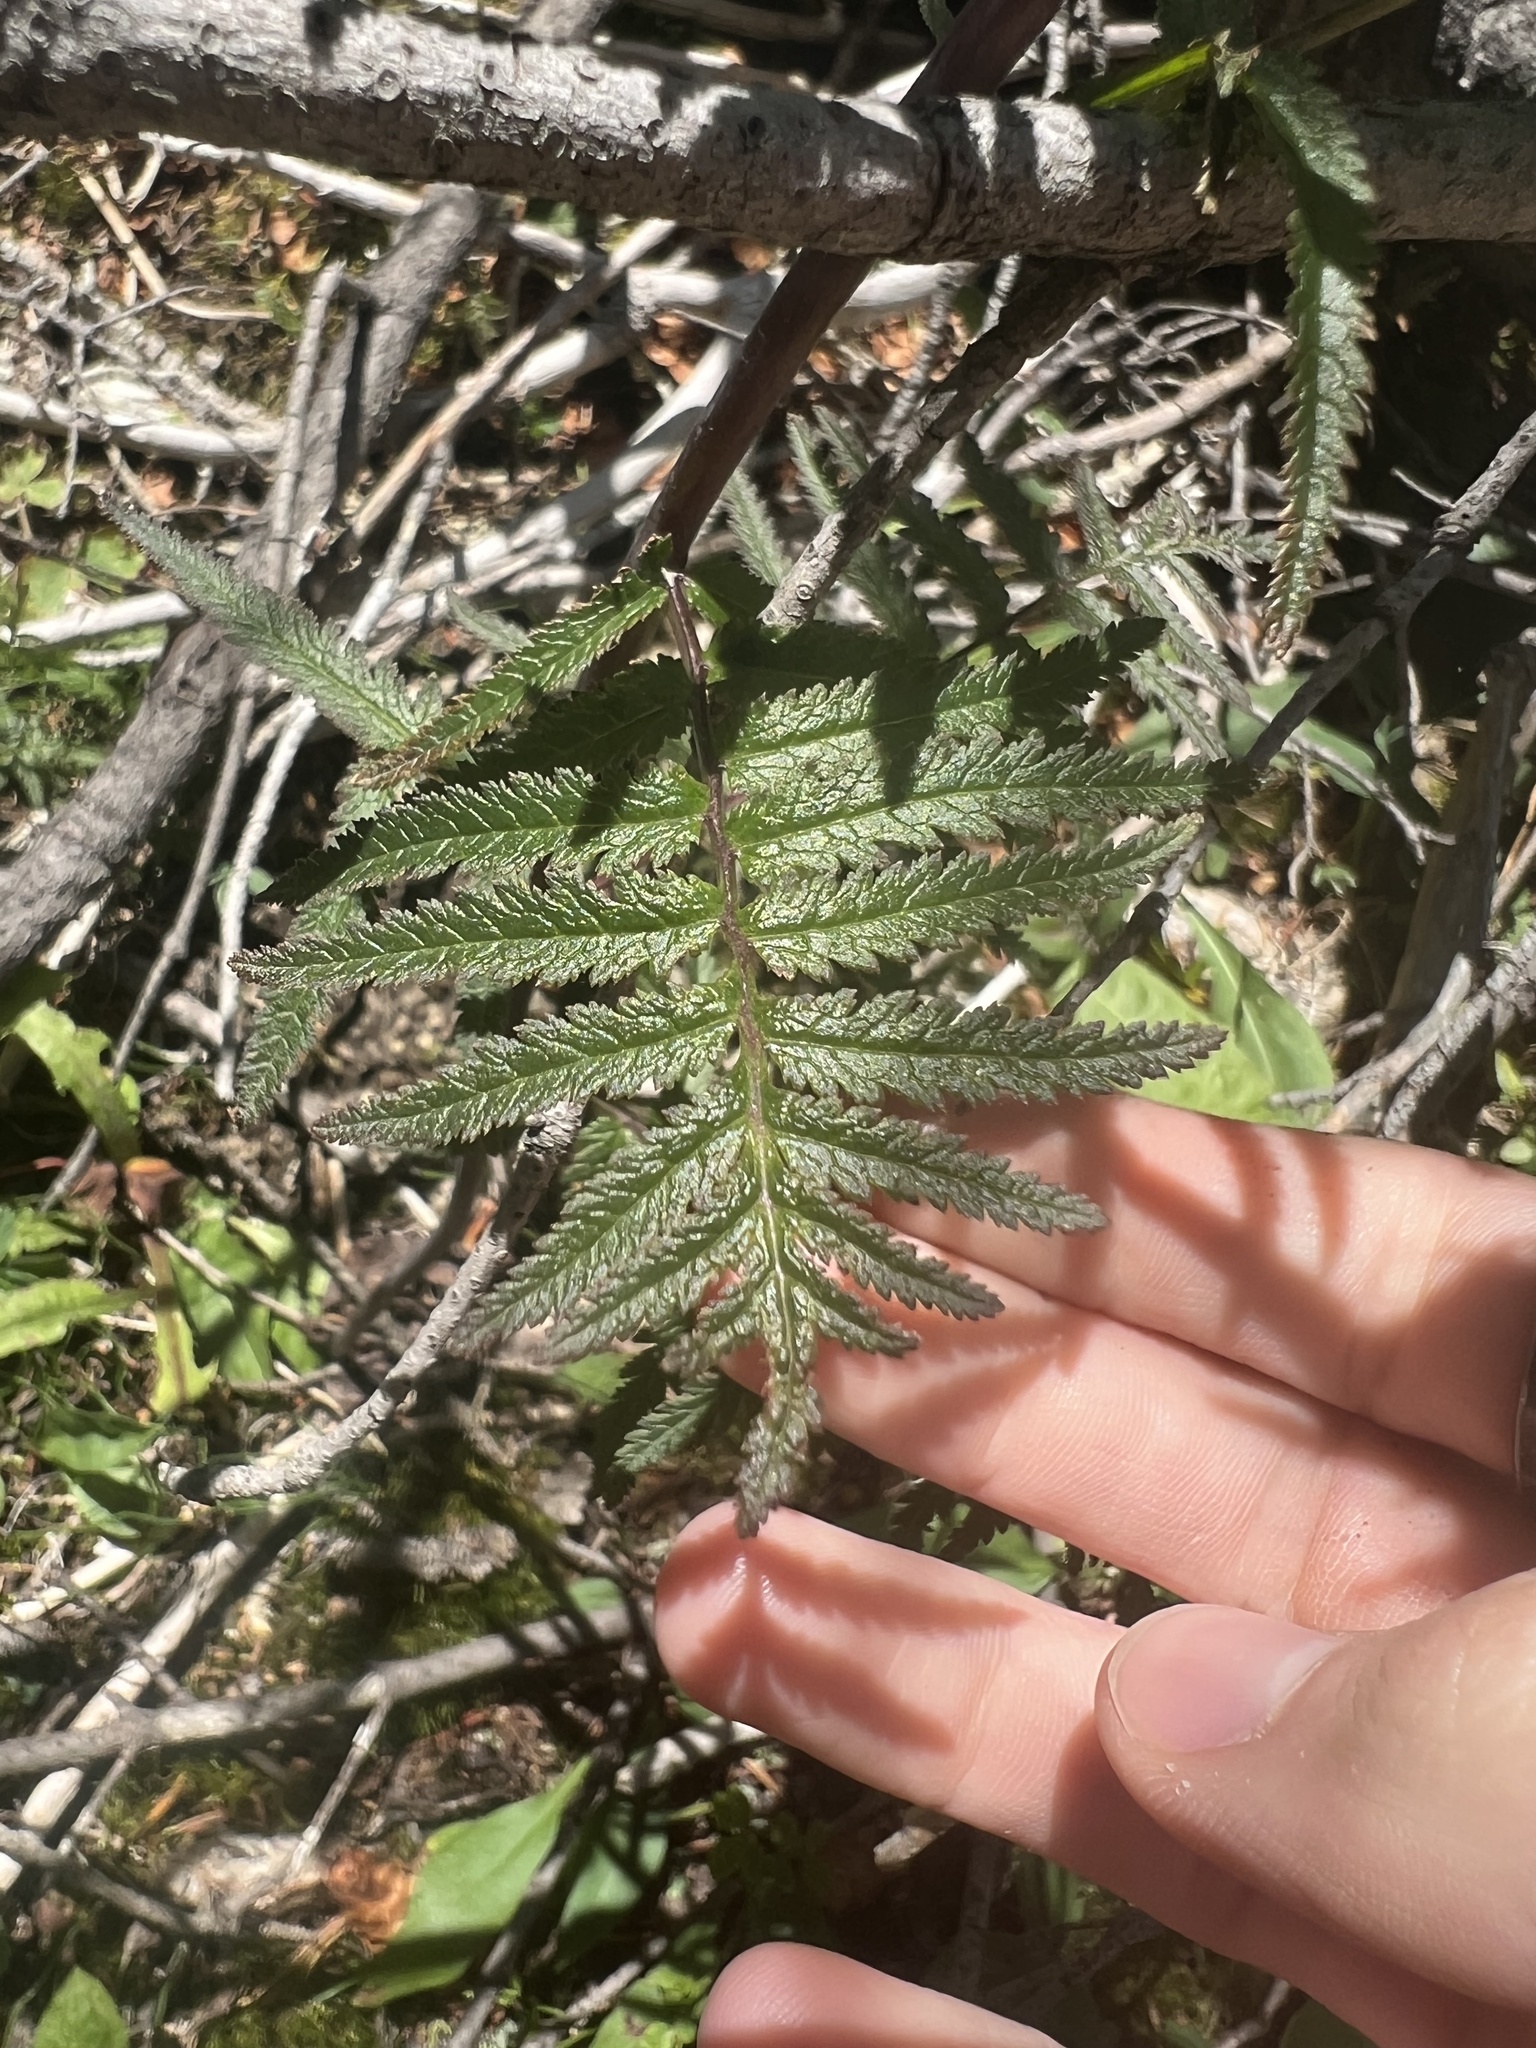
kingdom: Plantae
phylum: Tracheophyta
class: Magnoliopsida
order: Lamiales
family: Orobanchaceae
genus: Pedicularis
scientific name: Pedicularis bracteosa
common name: Bracted lousewort
